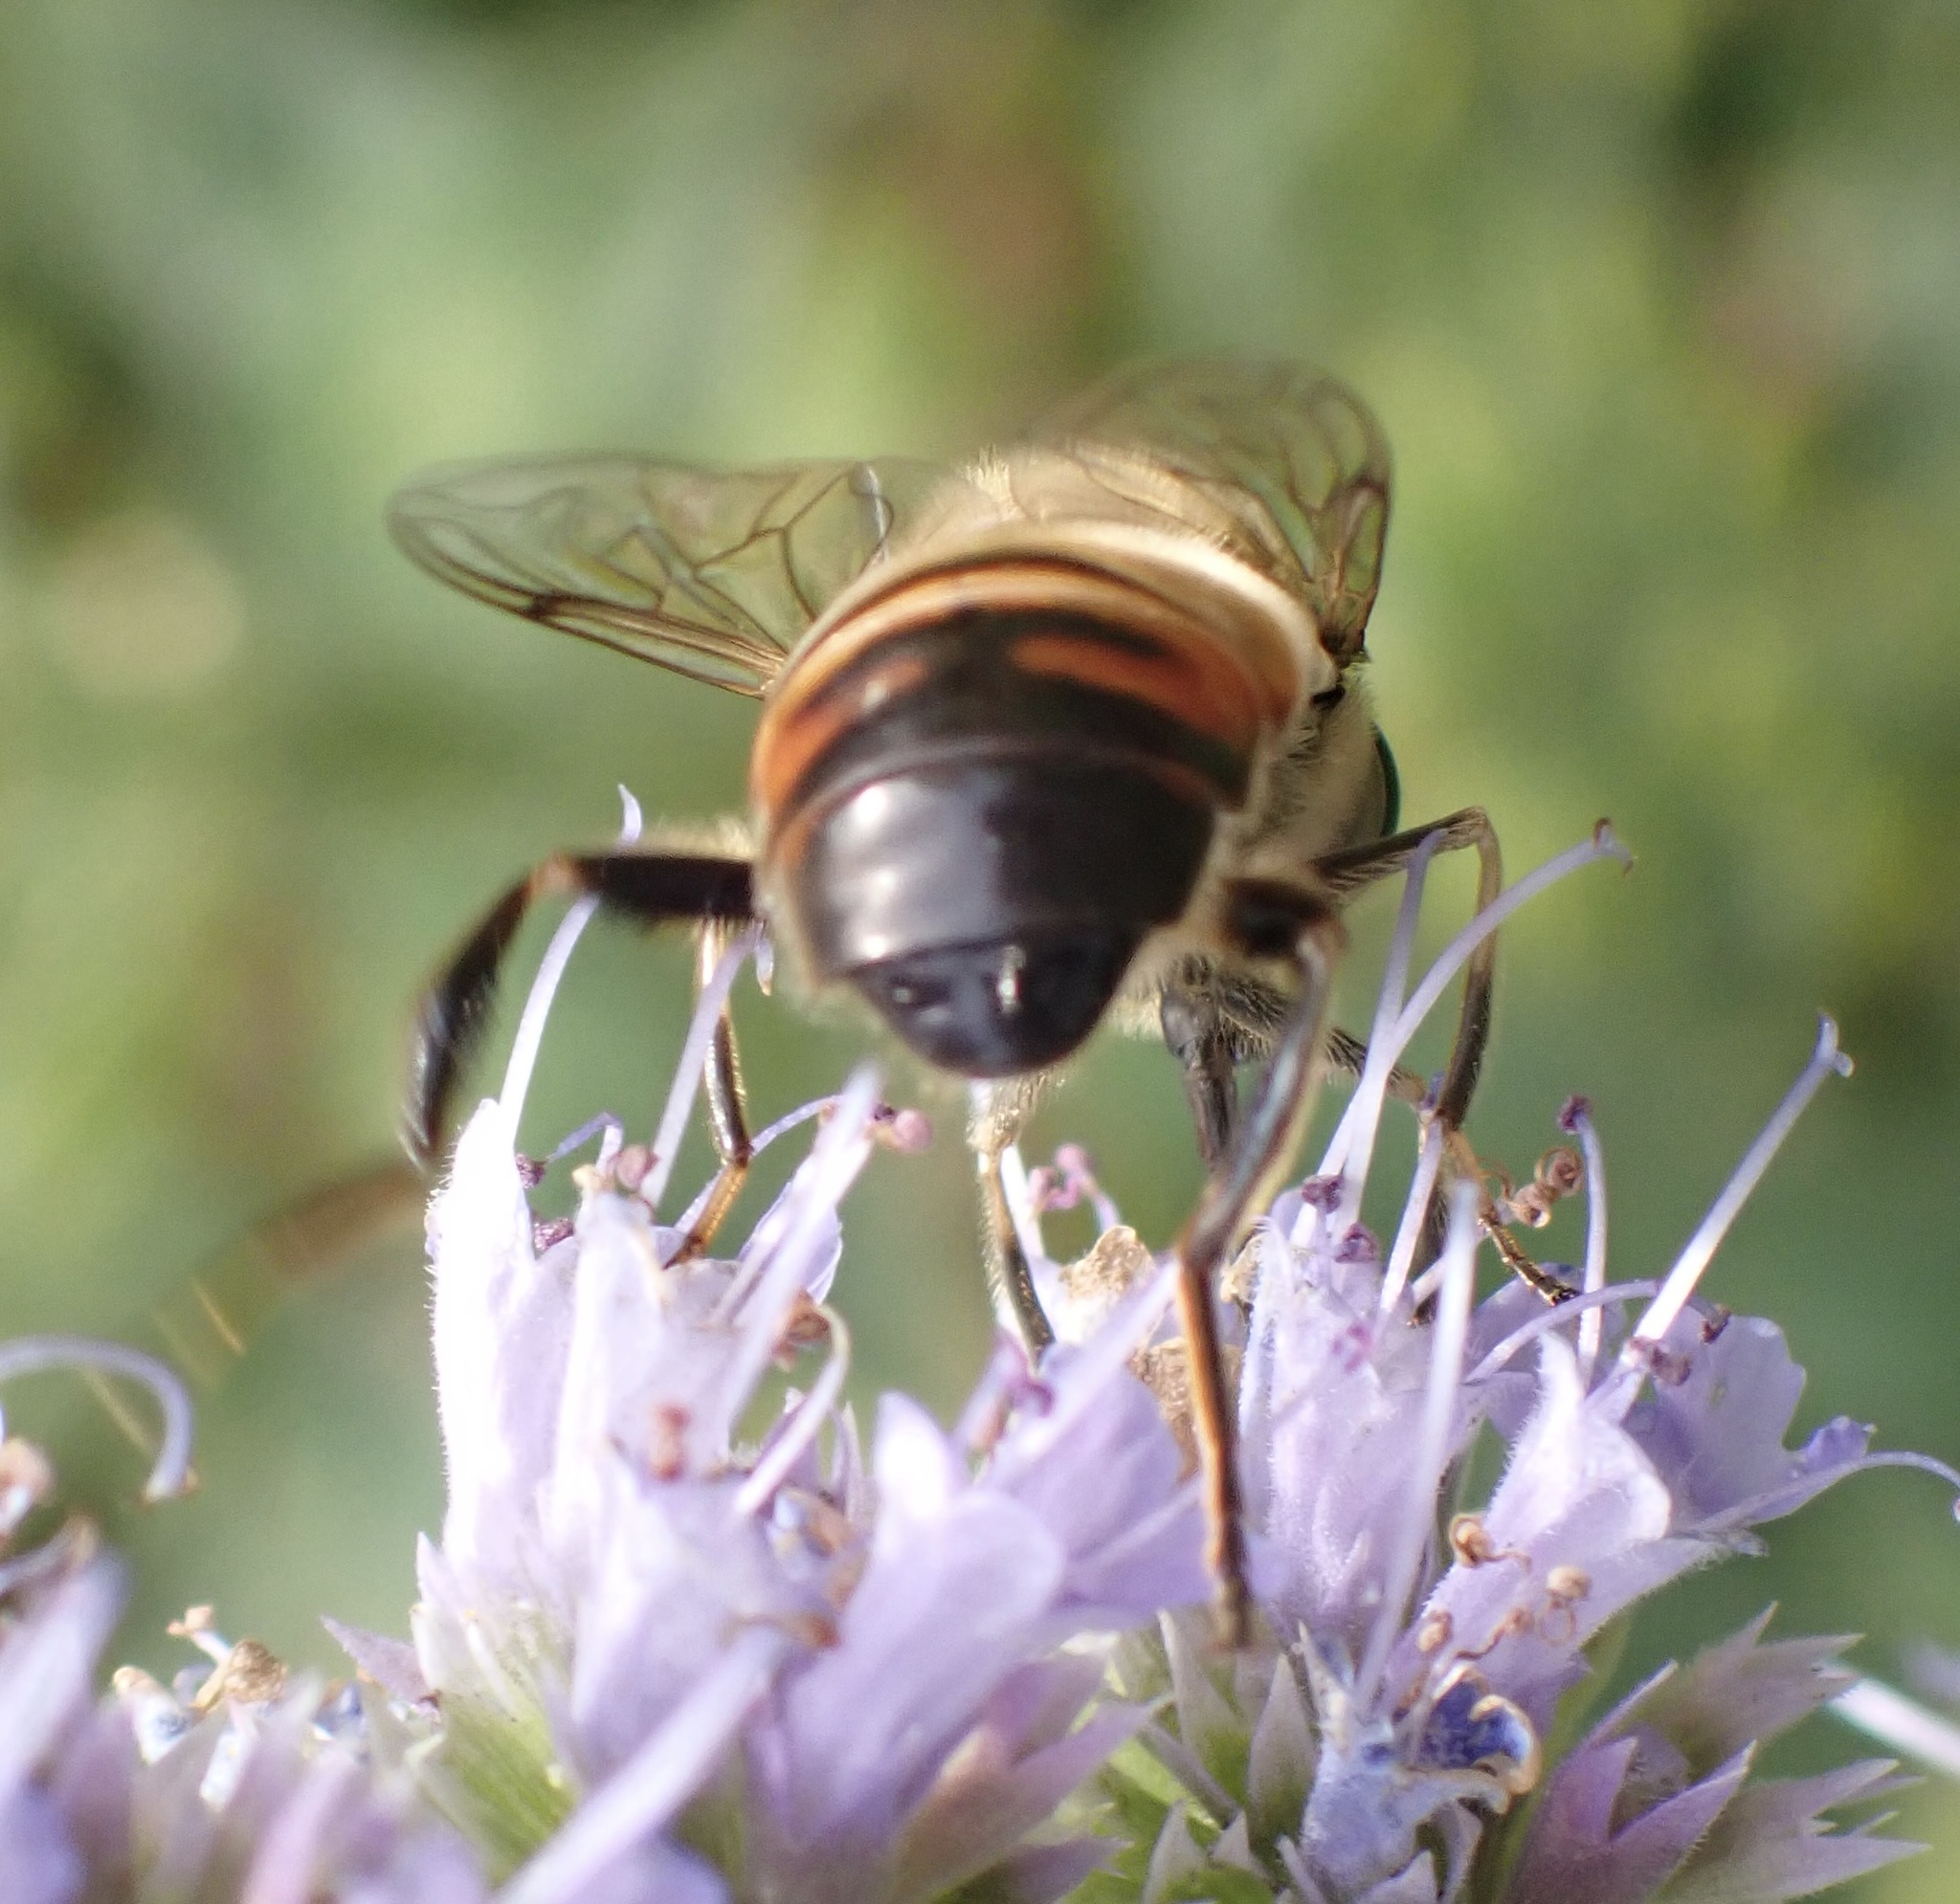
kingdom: Animalia
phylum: Arthropoda
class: Insecta
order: Diptera
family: Syrphidae
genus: Eristalis
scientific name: Eristalis tenax
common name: Drone fly
